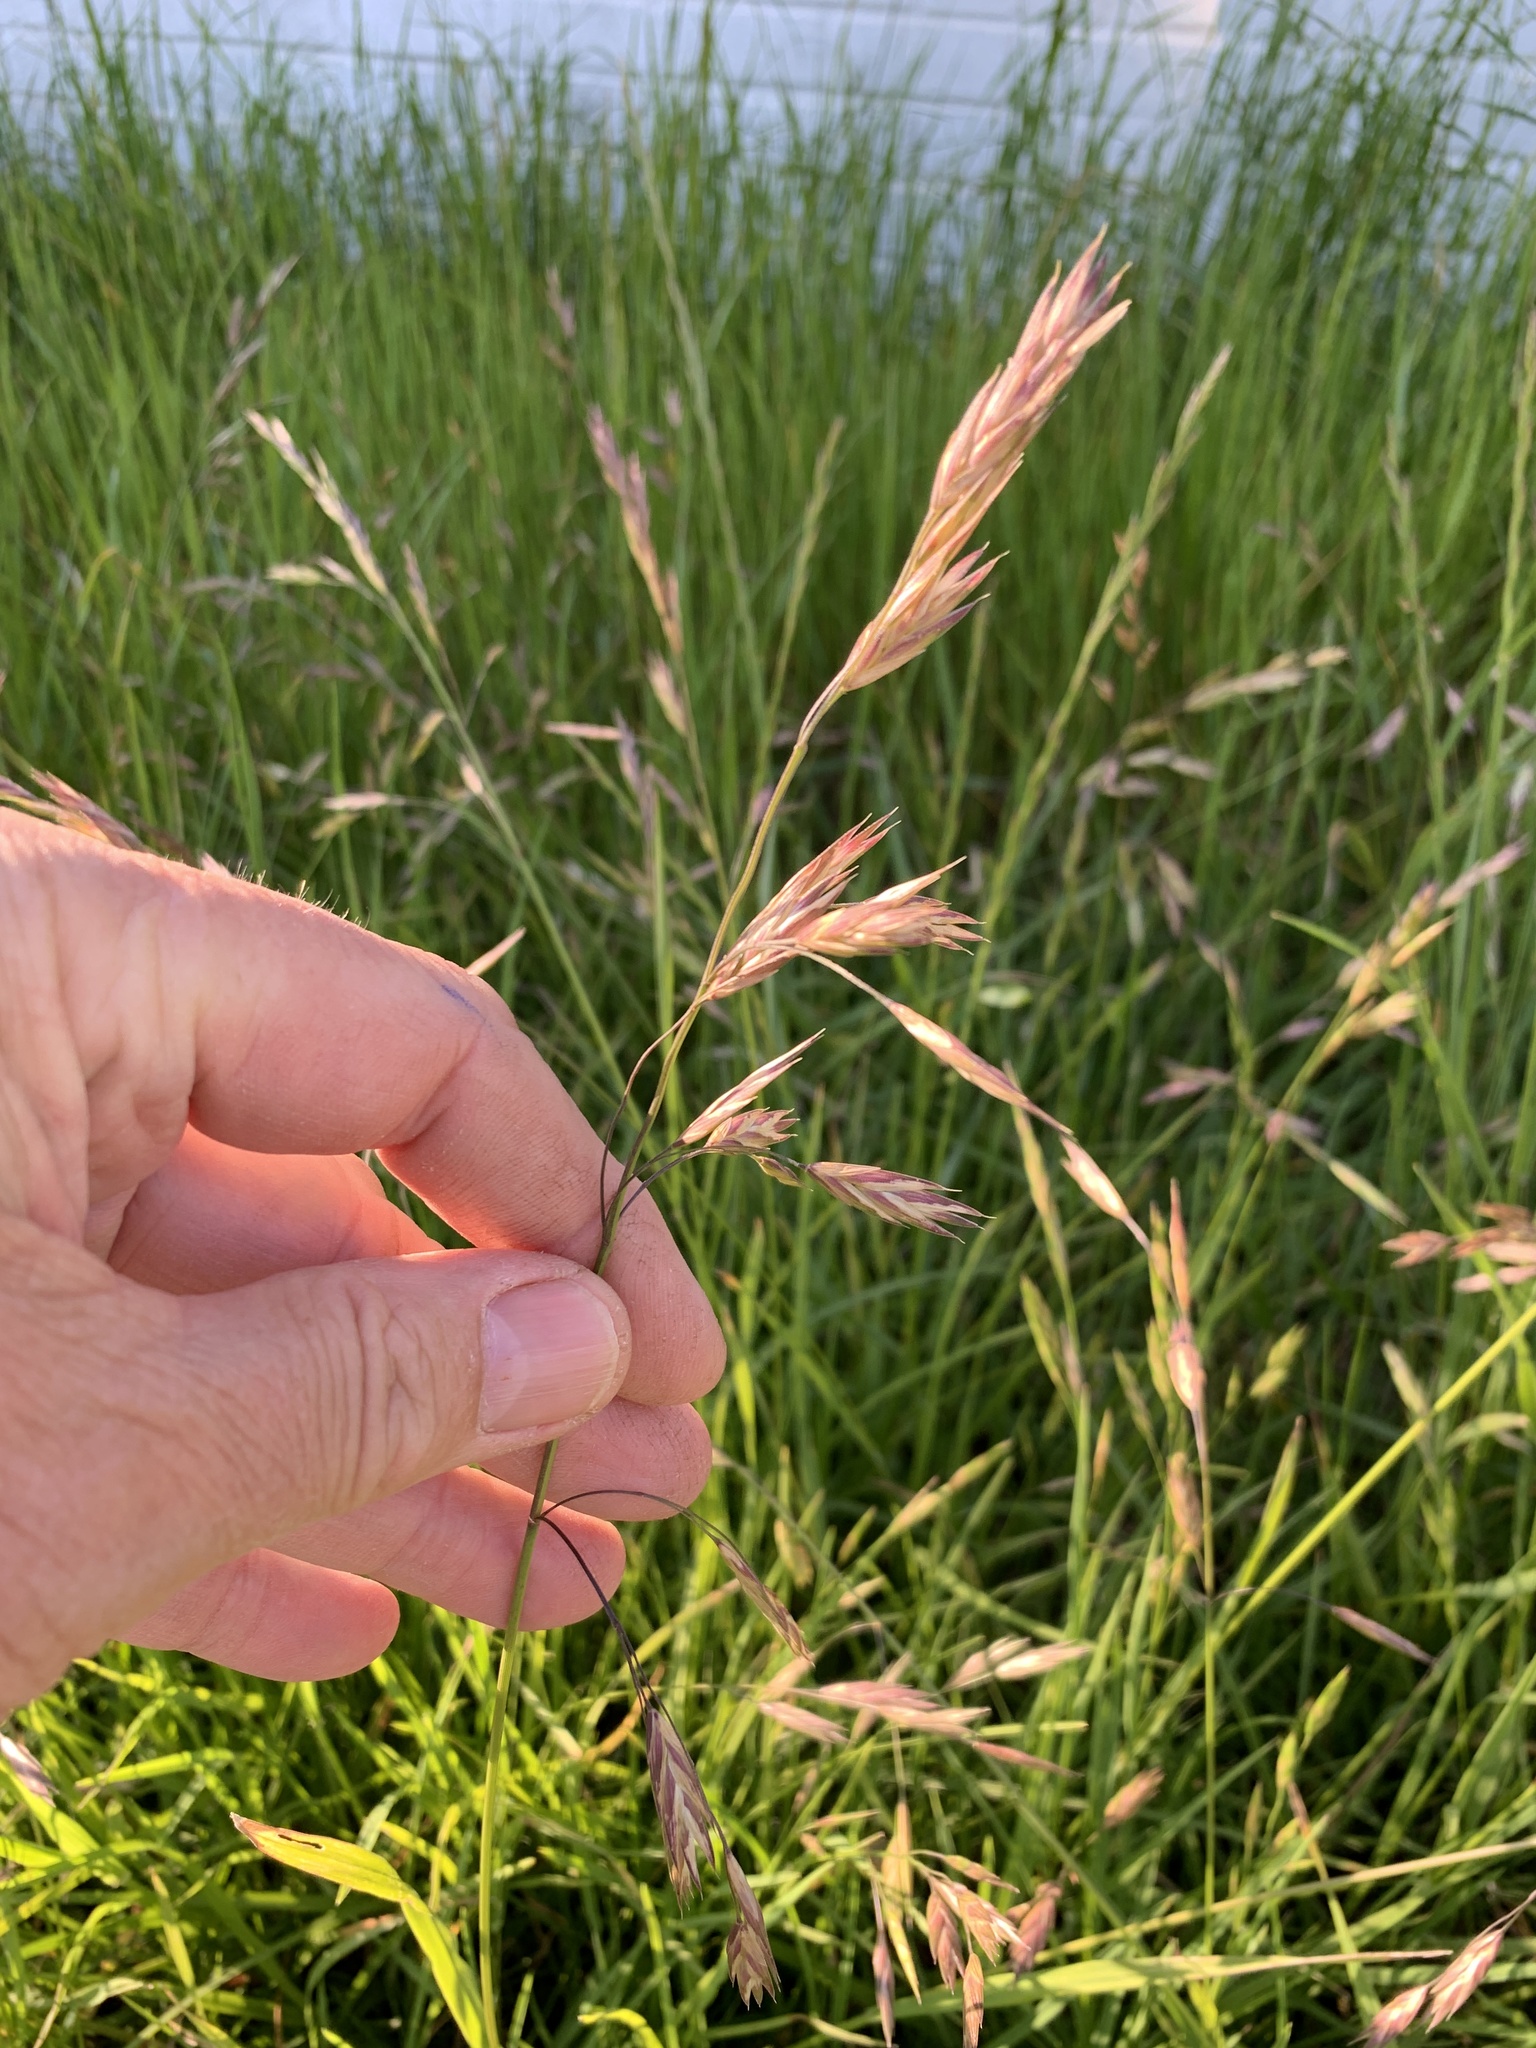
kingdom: Plantae
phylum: Tracheophyta
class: Liliopsida
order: Poales
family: Poaceae
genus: Bromus
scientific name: Bromus catharticus
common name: Rescuegrass
